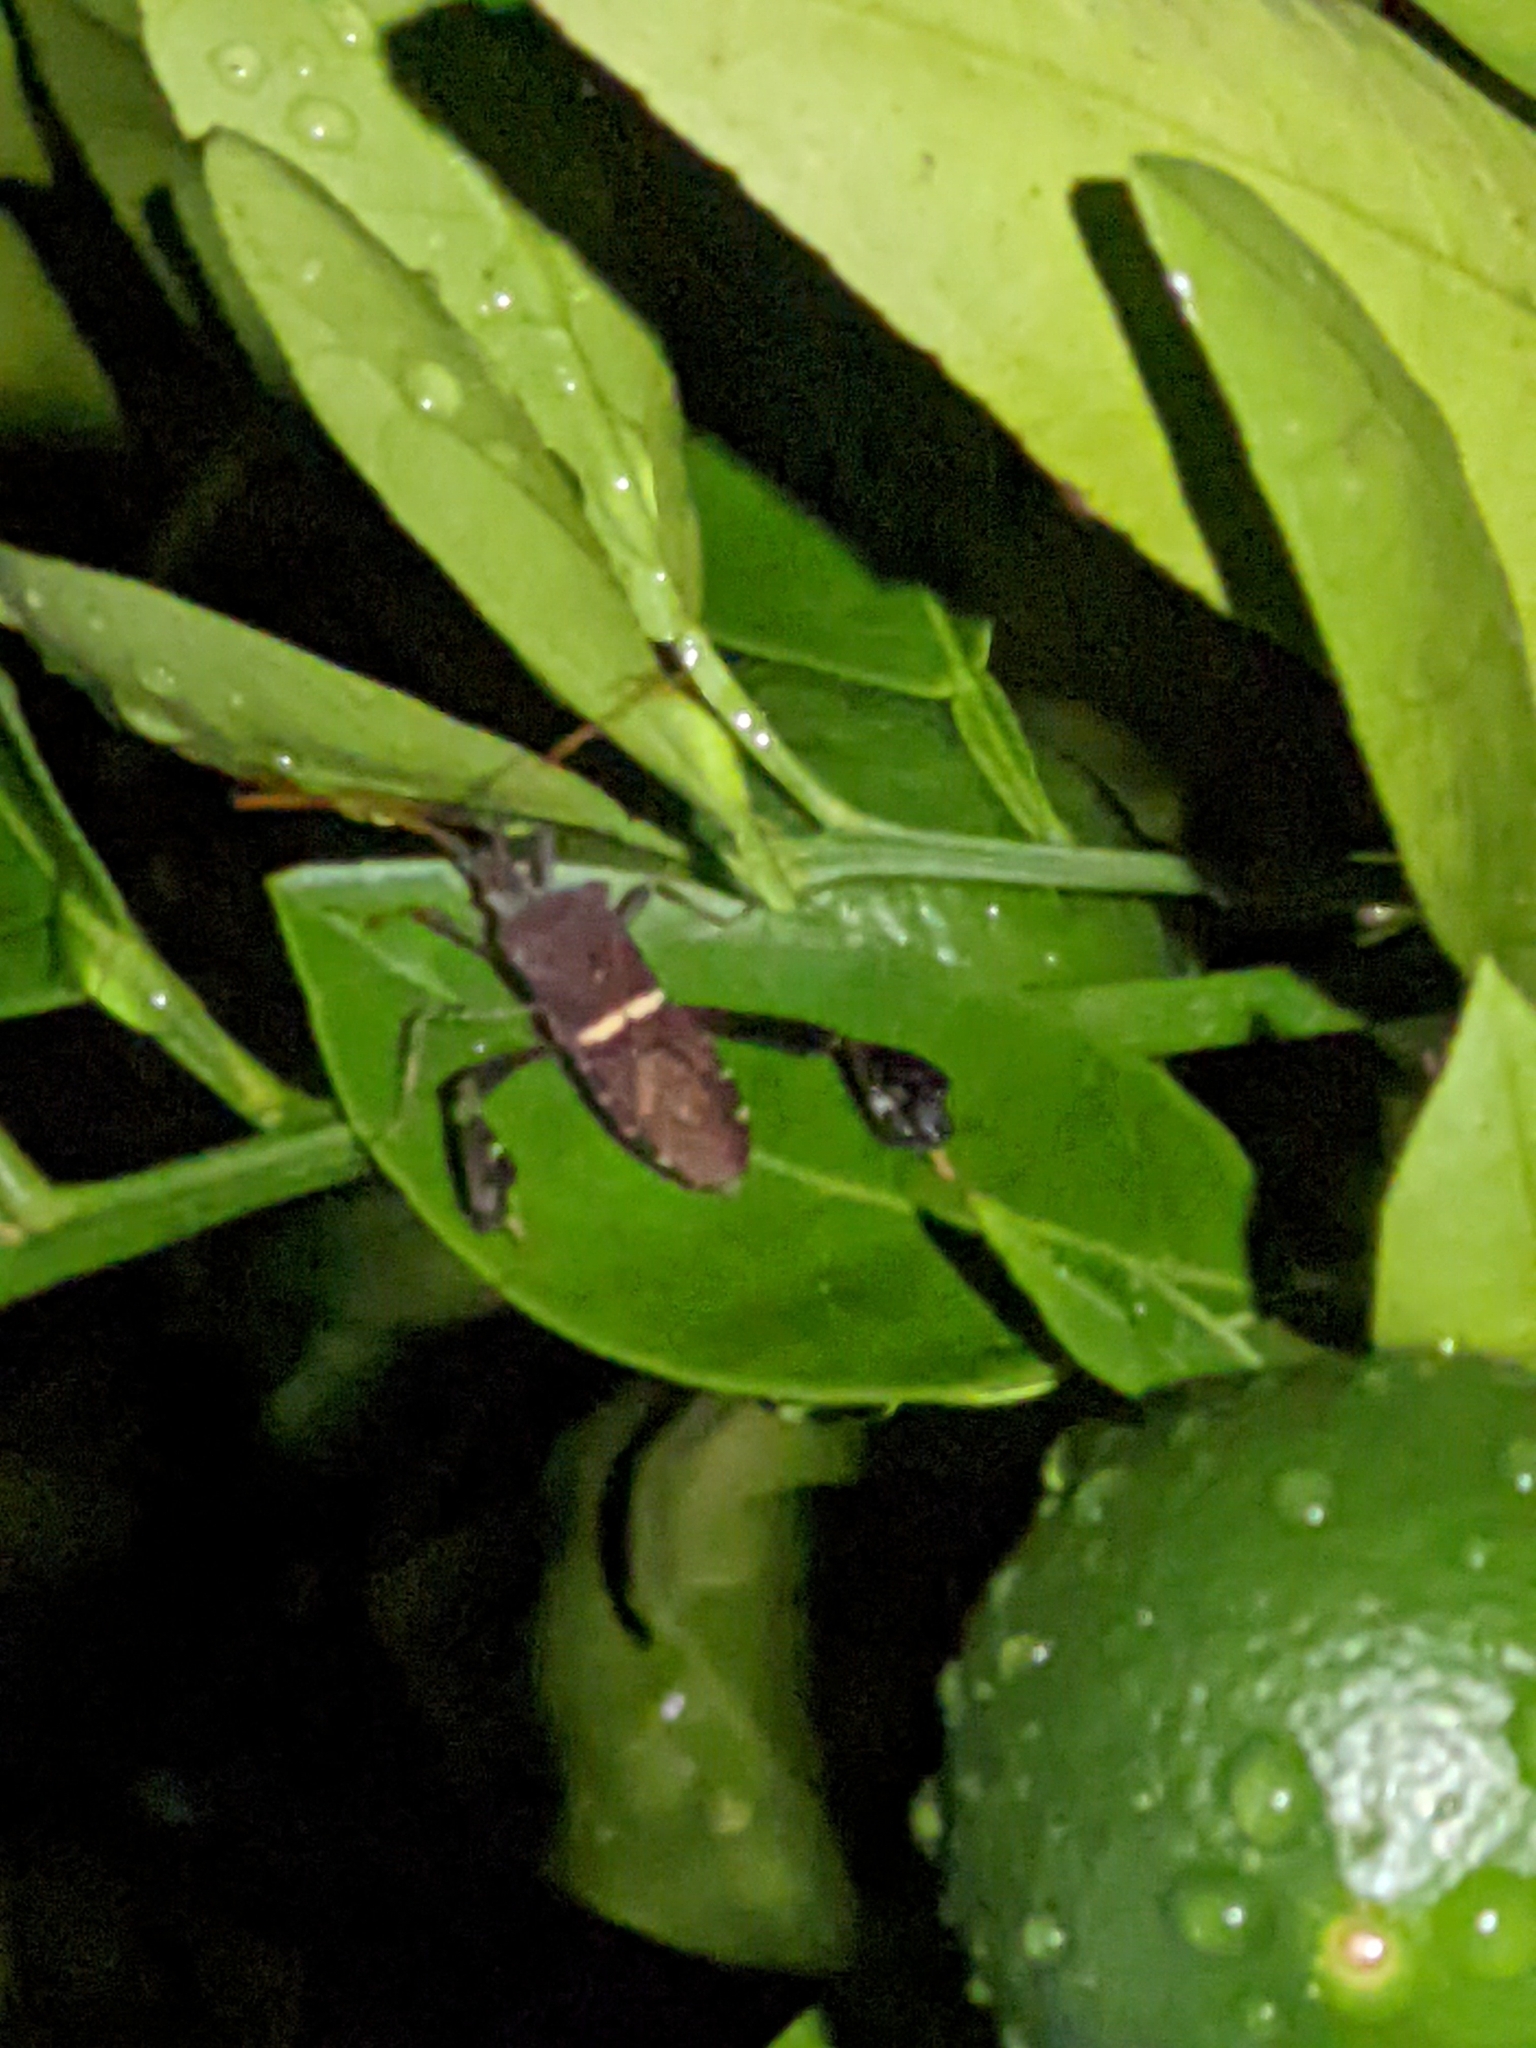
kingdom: Animalia
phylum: Arthropoda
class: Insecta
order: Hemiptera
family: Coreidae
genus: Leptoglossus
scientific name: Leptoglossus phyllopus
